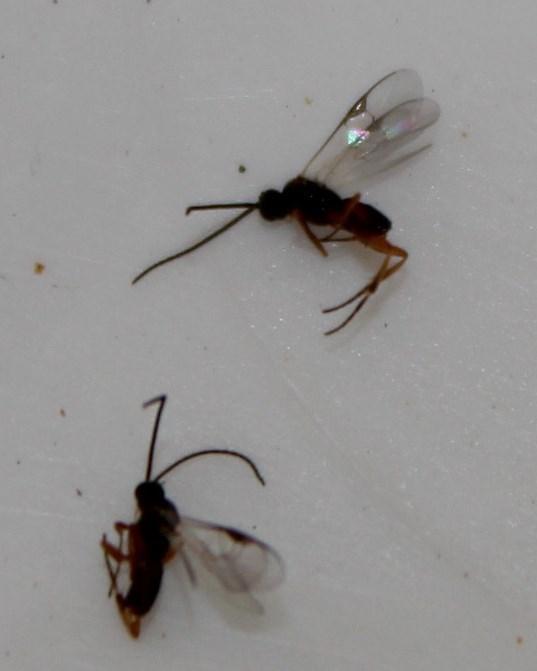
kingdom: Animalia
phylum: Arthropoda
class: Insecta
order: Hymenoptera
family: Braconidae
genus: Cotesia
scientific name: Cotesia
